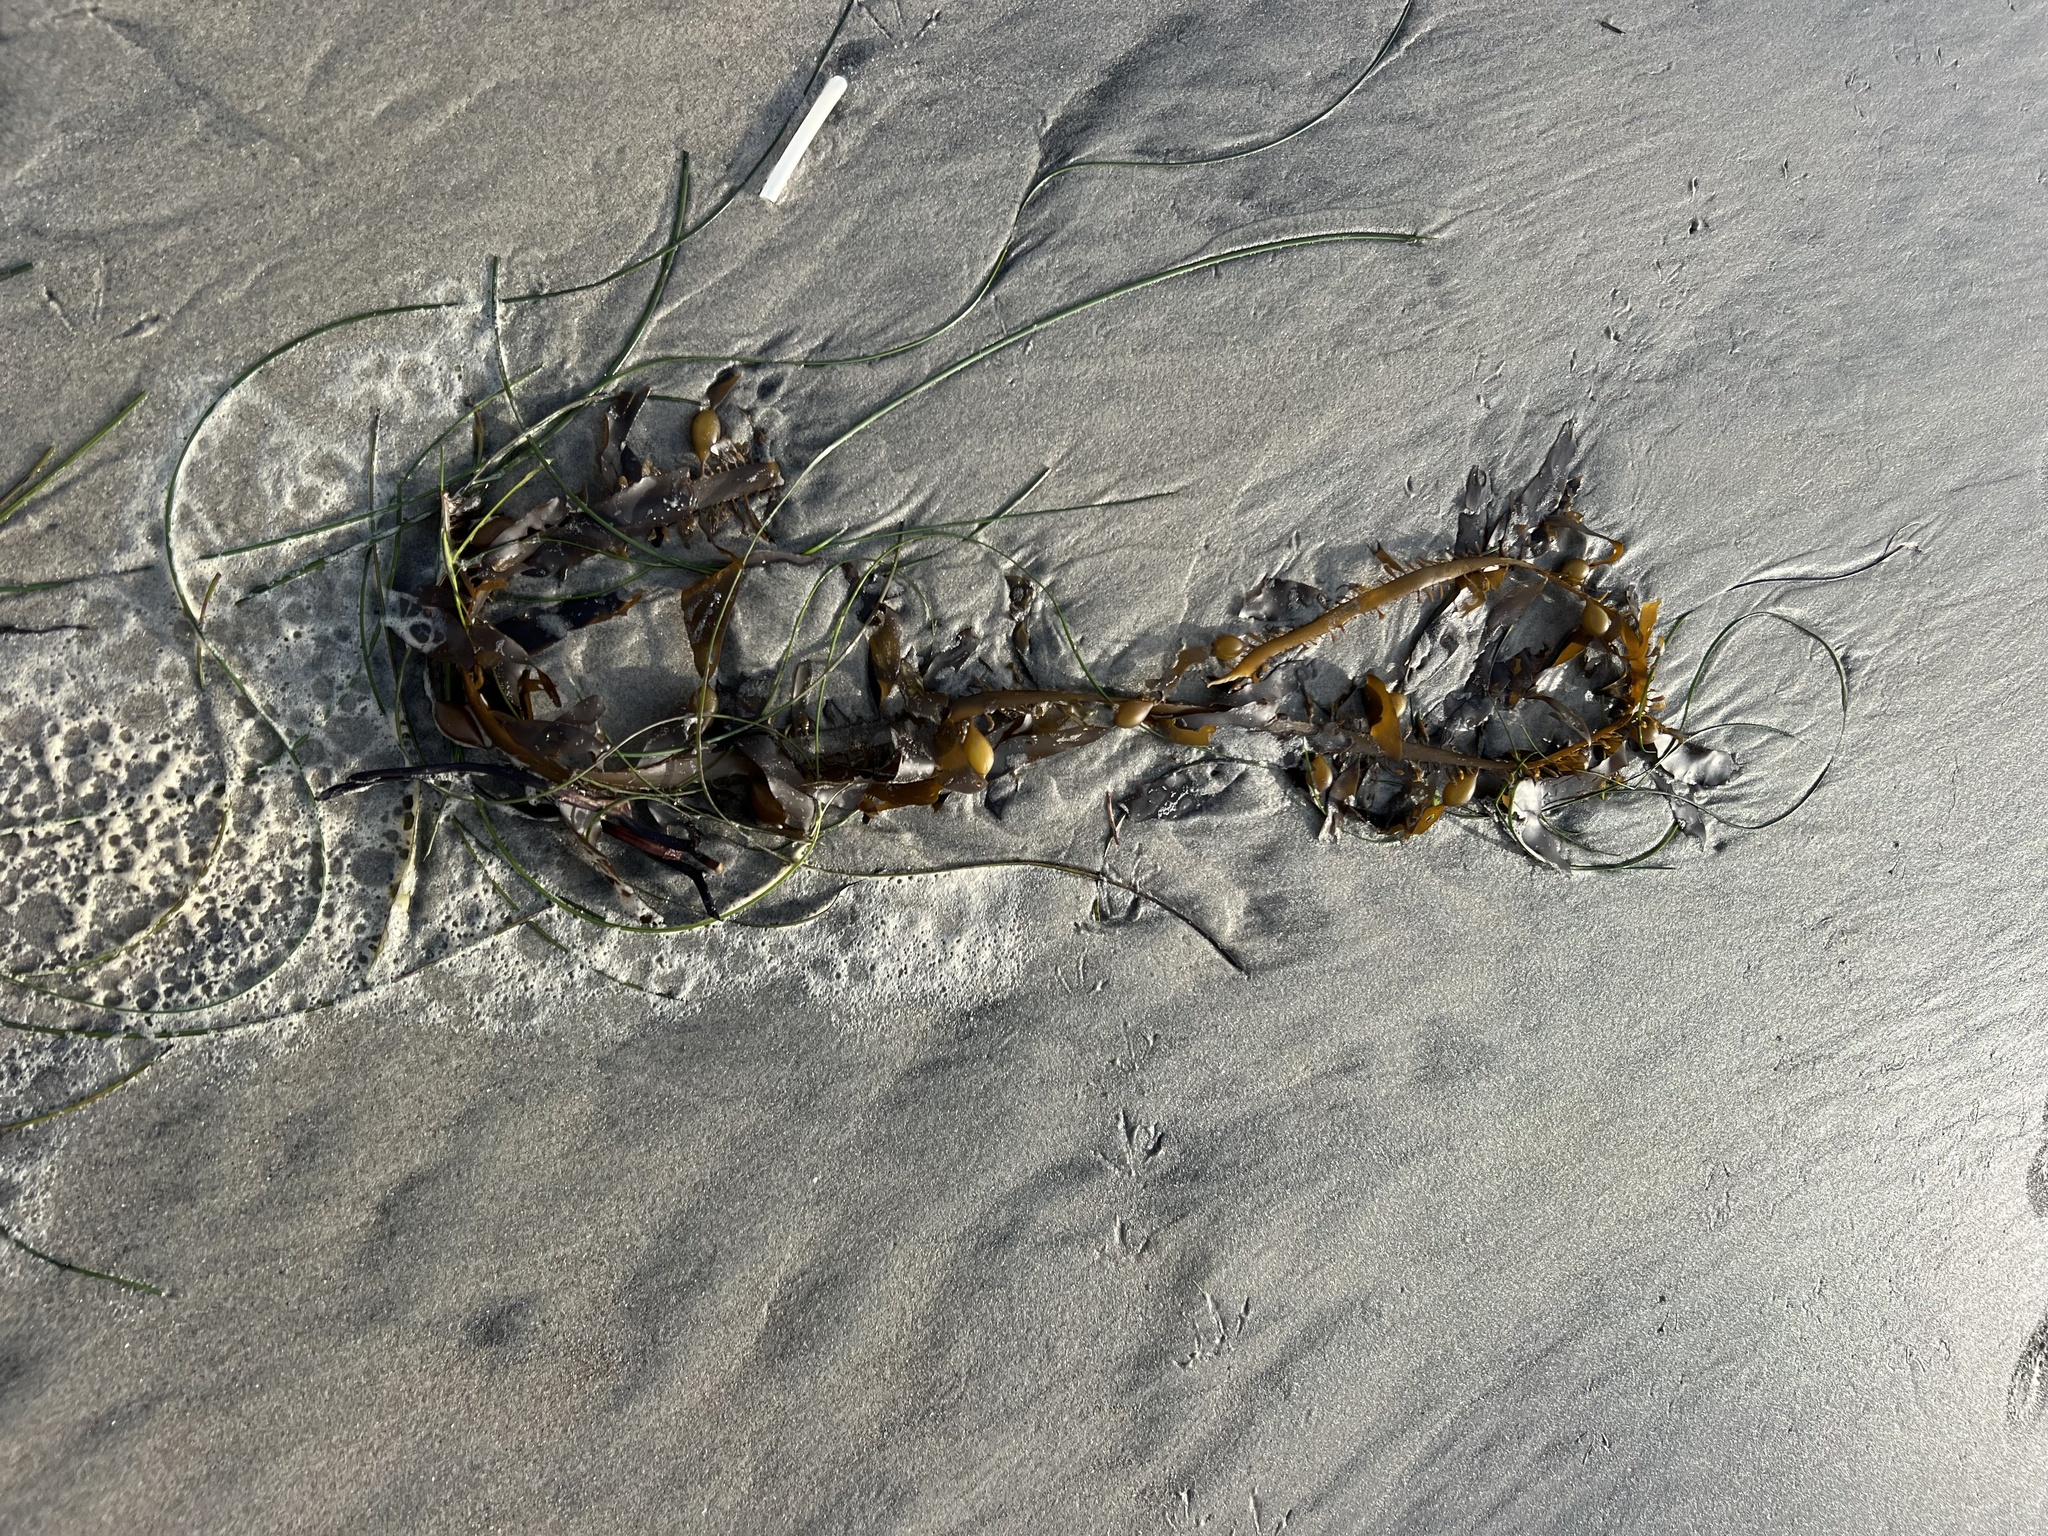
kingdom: Chromista
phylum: Ochrophyta
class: Phaeophyceae
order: Laminariales
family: Lessoniaceae
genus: Egregia
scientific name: Egregia menziesii
